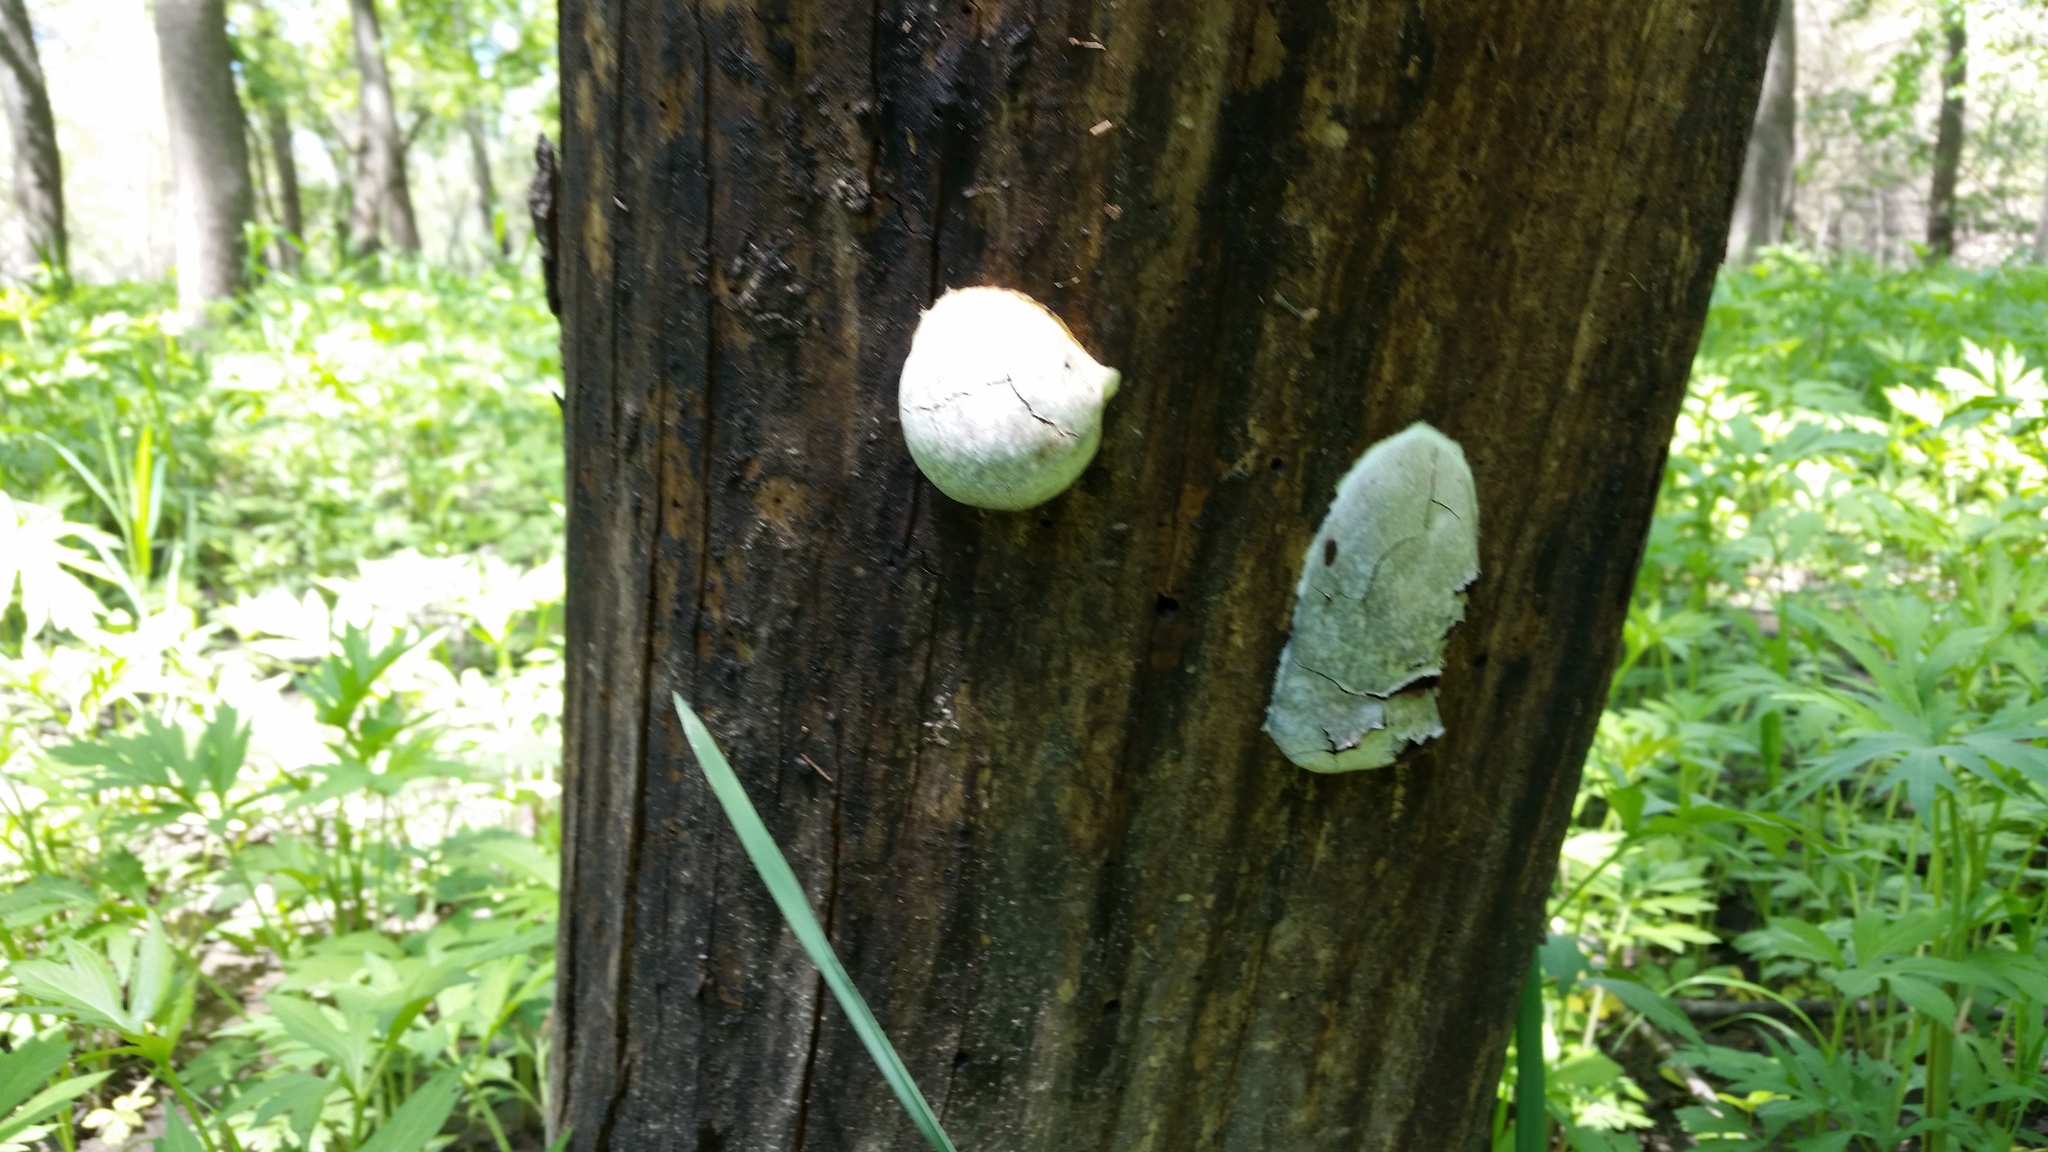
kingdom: Protozoa
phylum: Mycetozoa
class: Myxomycetes
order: Cribrariales
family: Tubiferaceae
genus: Reticularia
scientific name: Reticularia lycoperdon
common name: False puffball
